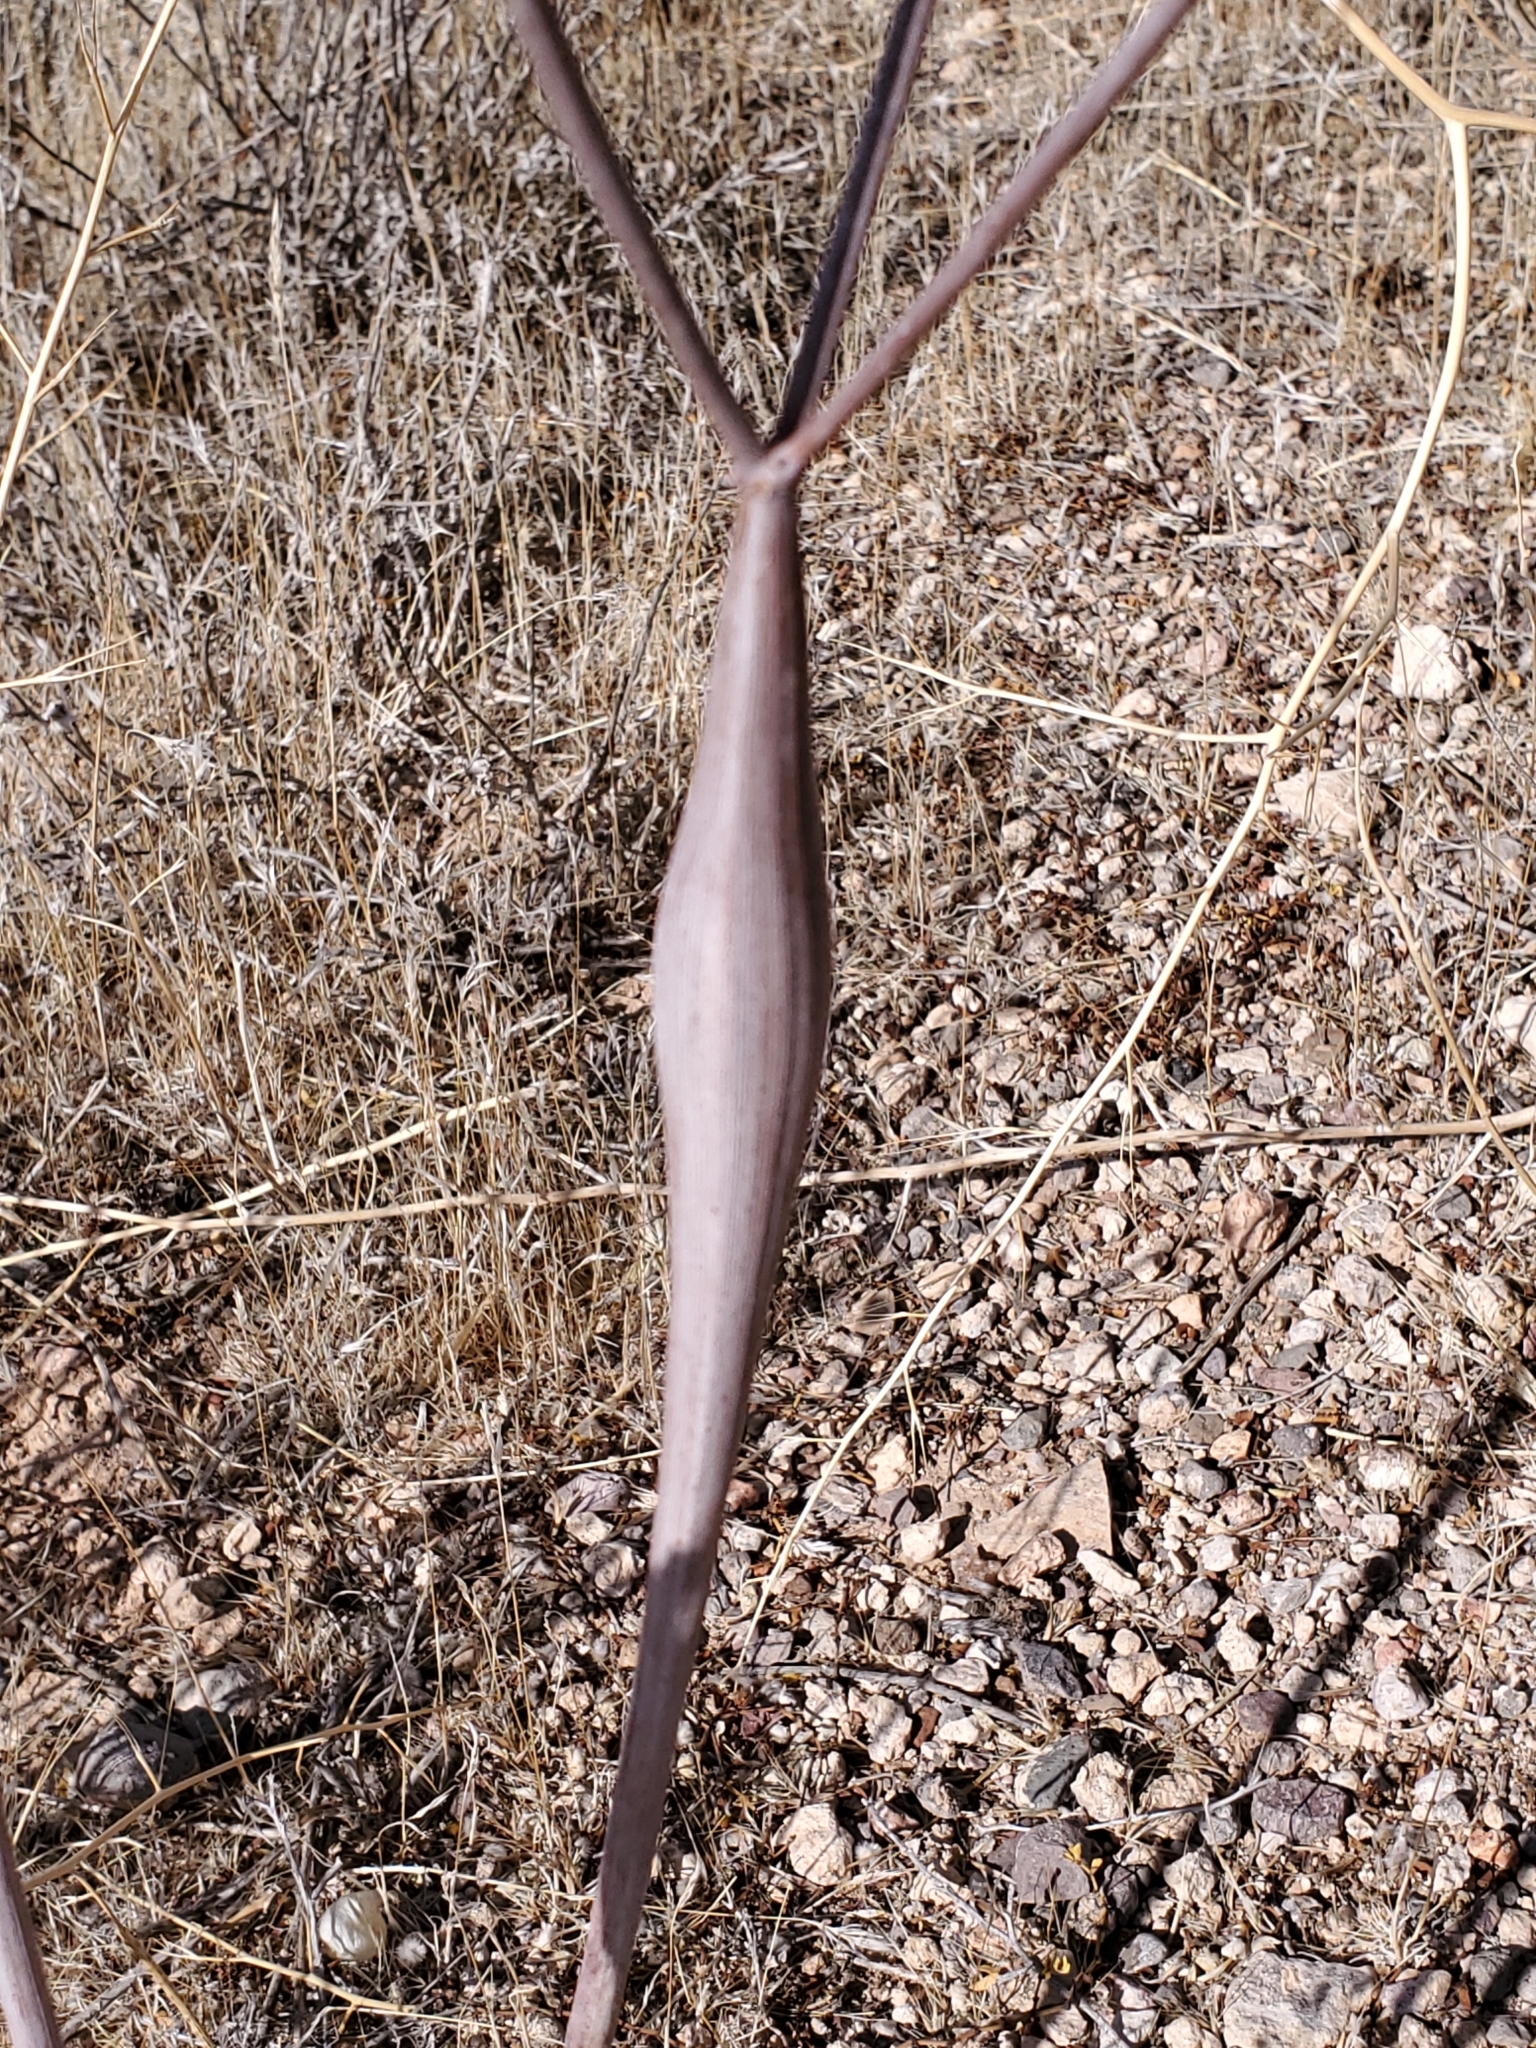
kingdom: Plantae
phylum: Tracheophyta
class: Magnoliopsida
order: Caryophyllales
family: Polygonaceae
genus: Eriogonum
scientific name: Eriogonum inflatum
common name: Desert trumpet
